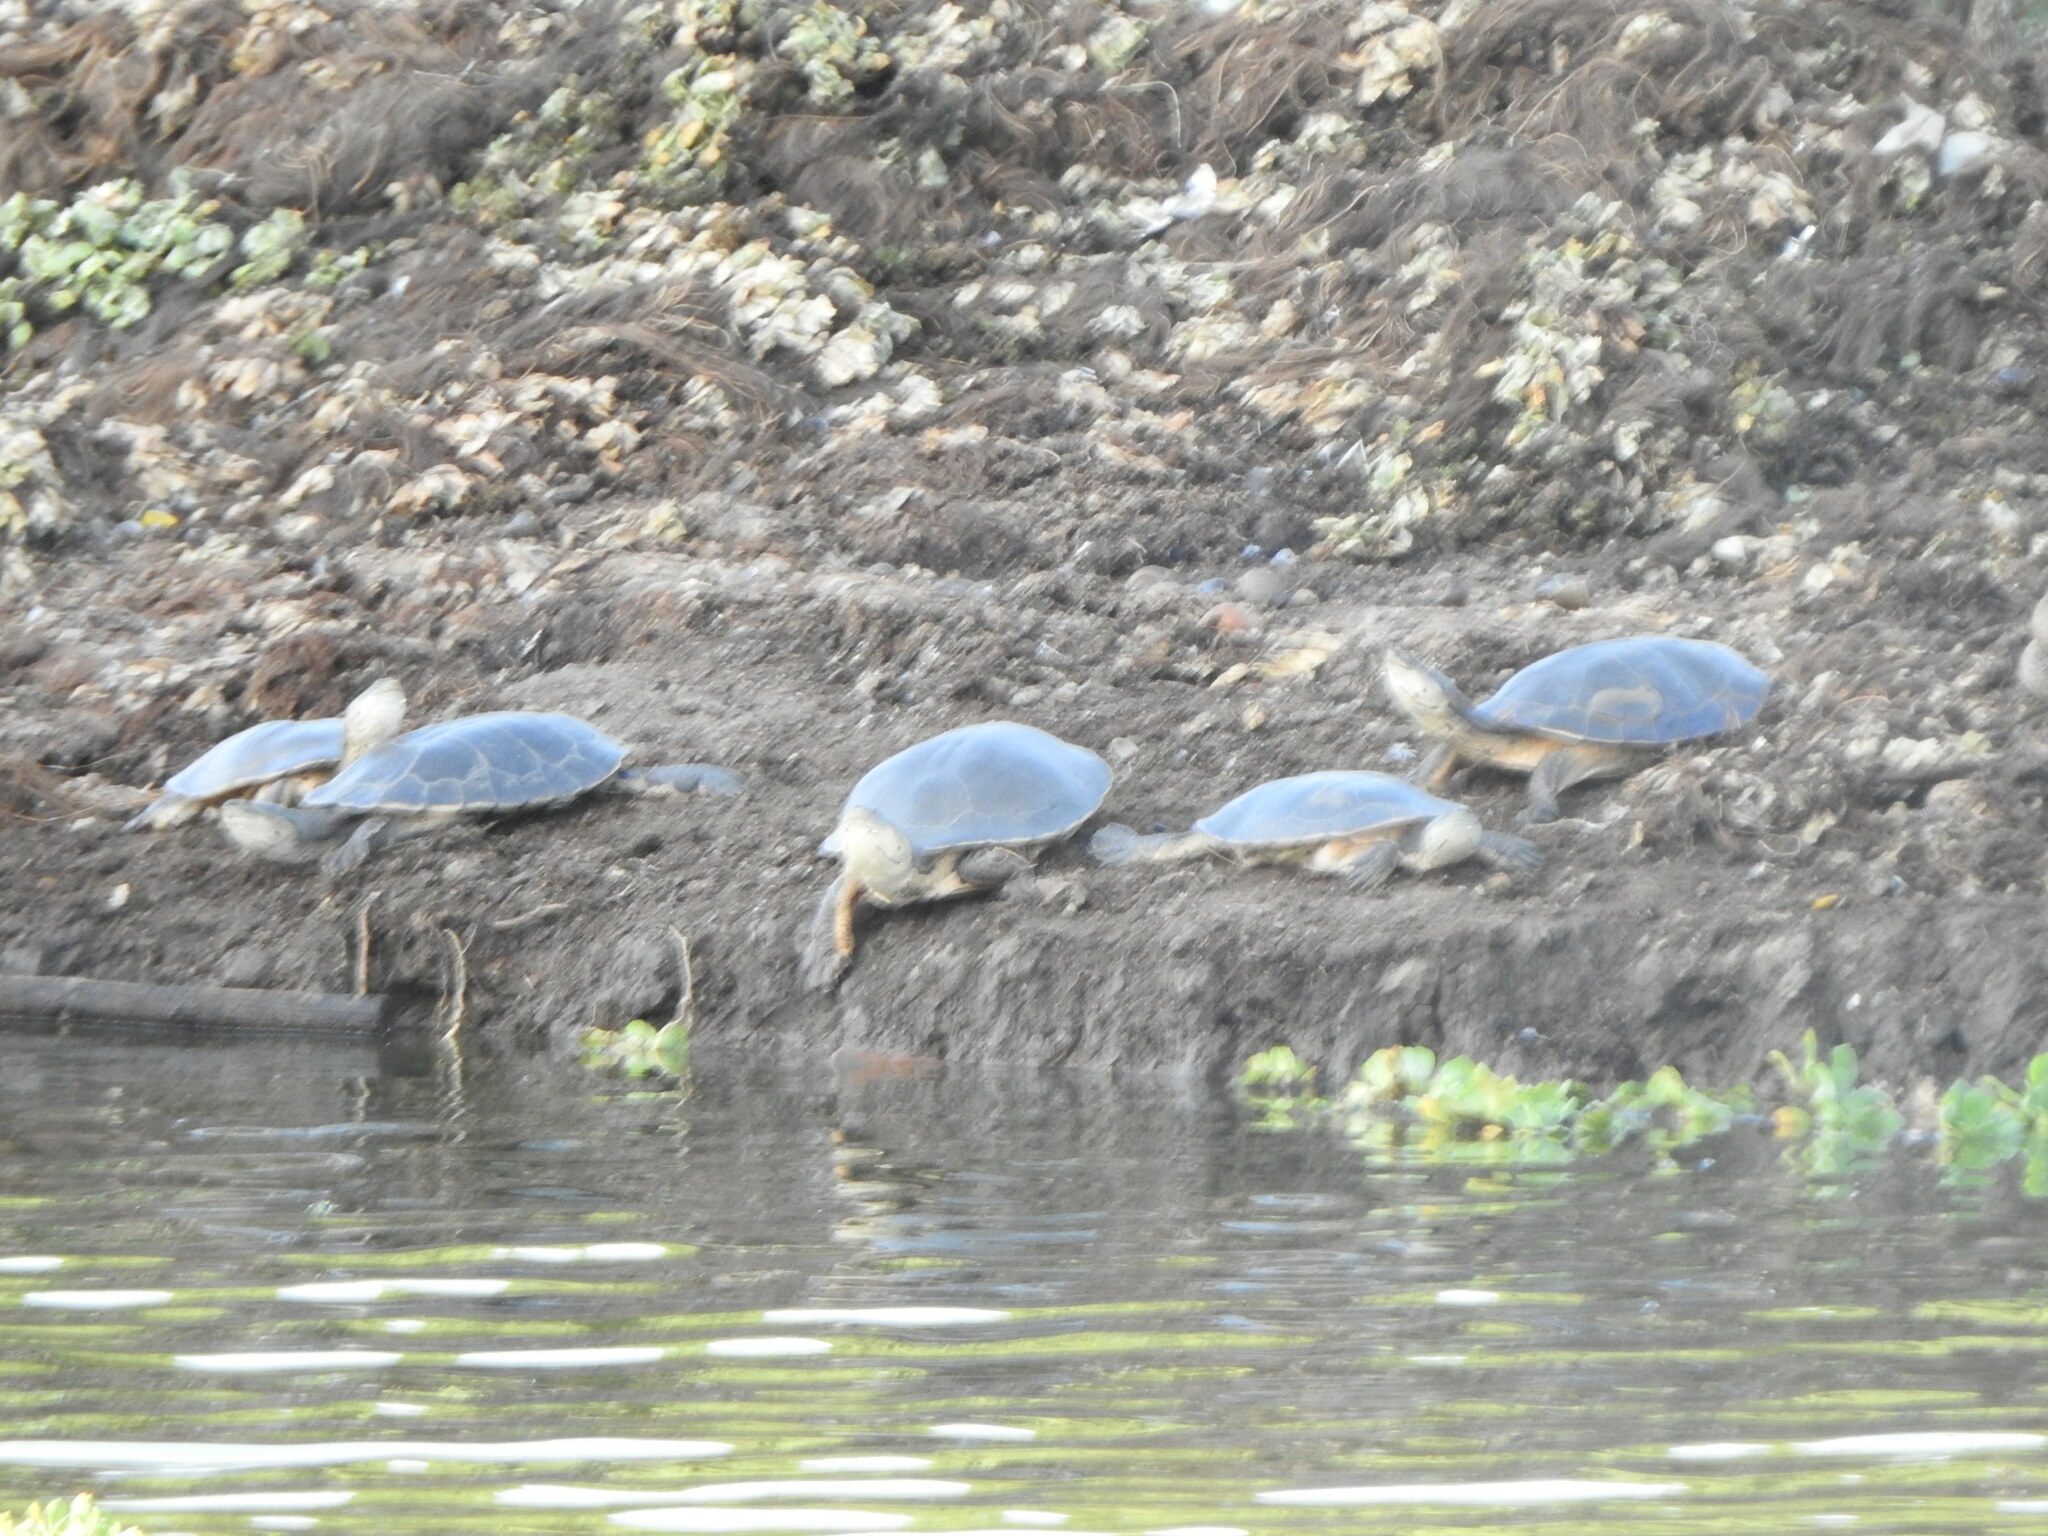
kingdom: Animalia
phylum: Chordata
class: Testudines
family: Chelidae
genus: Phrynops
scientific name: Phrynops hilarii
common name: Side-necked turtle of saint hillaire
